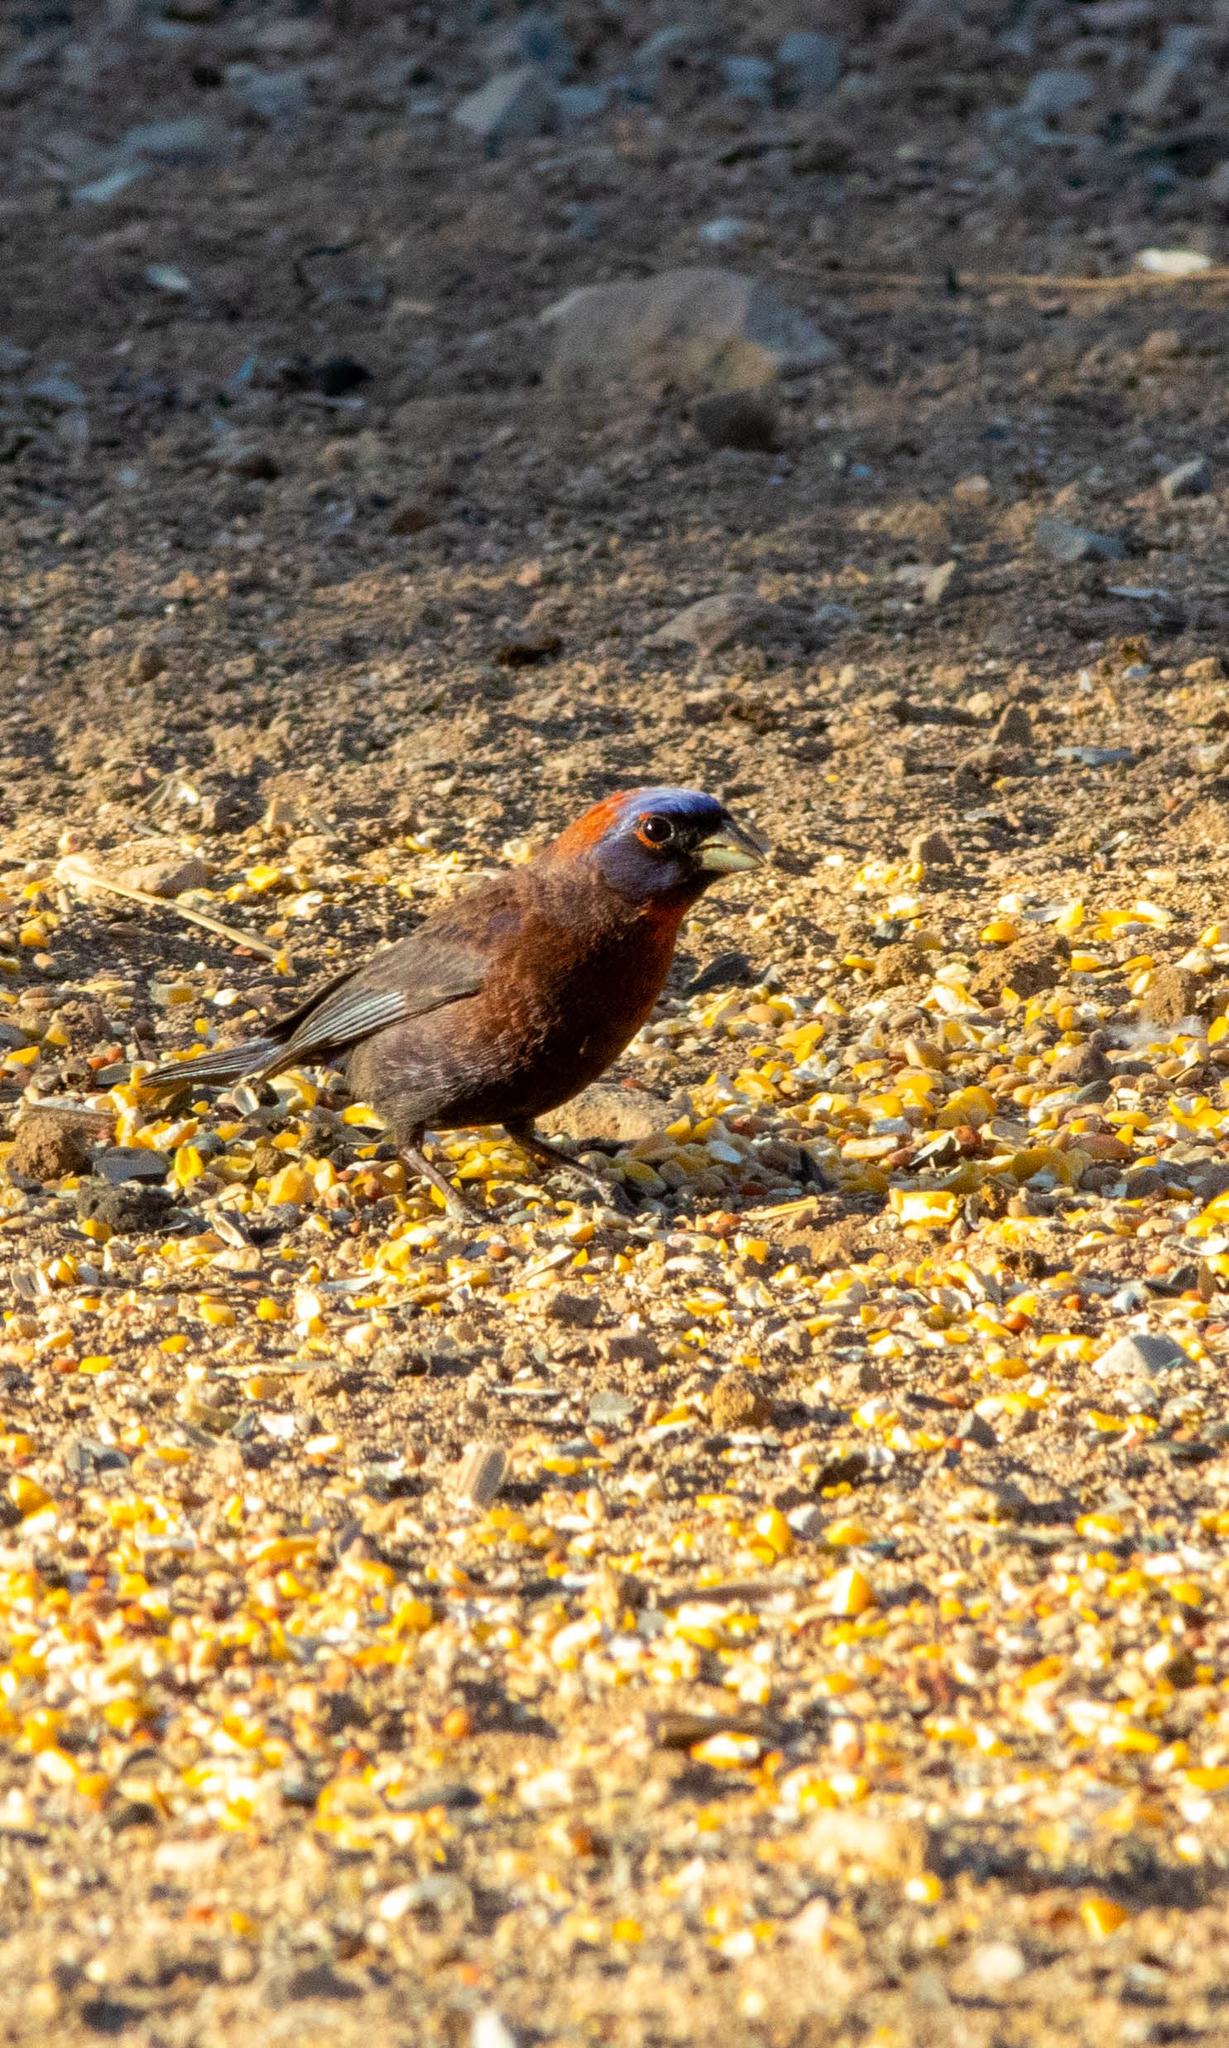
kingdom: Animalia
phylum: Chordata
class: Aves
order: Passeriformes
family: Cardinalidae
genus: Passerina
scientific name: Passerina versicolor
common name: Varied bunting
